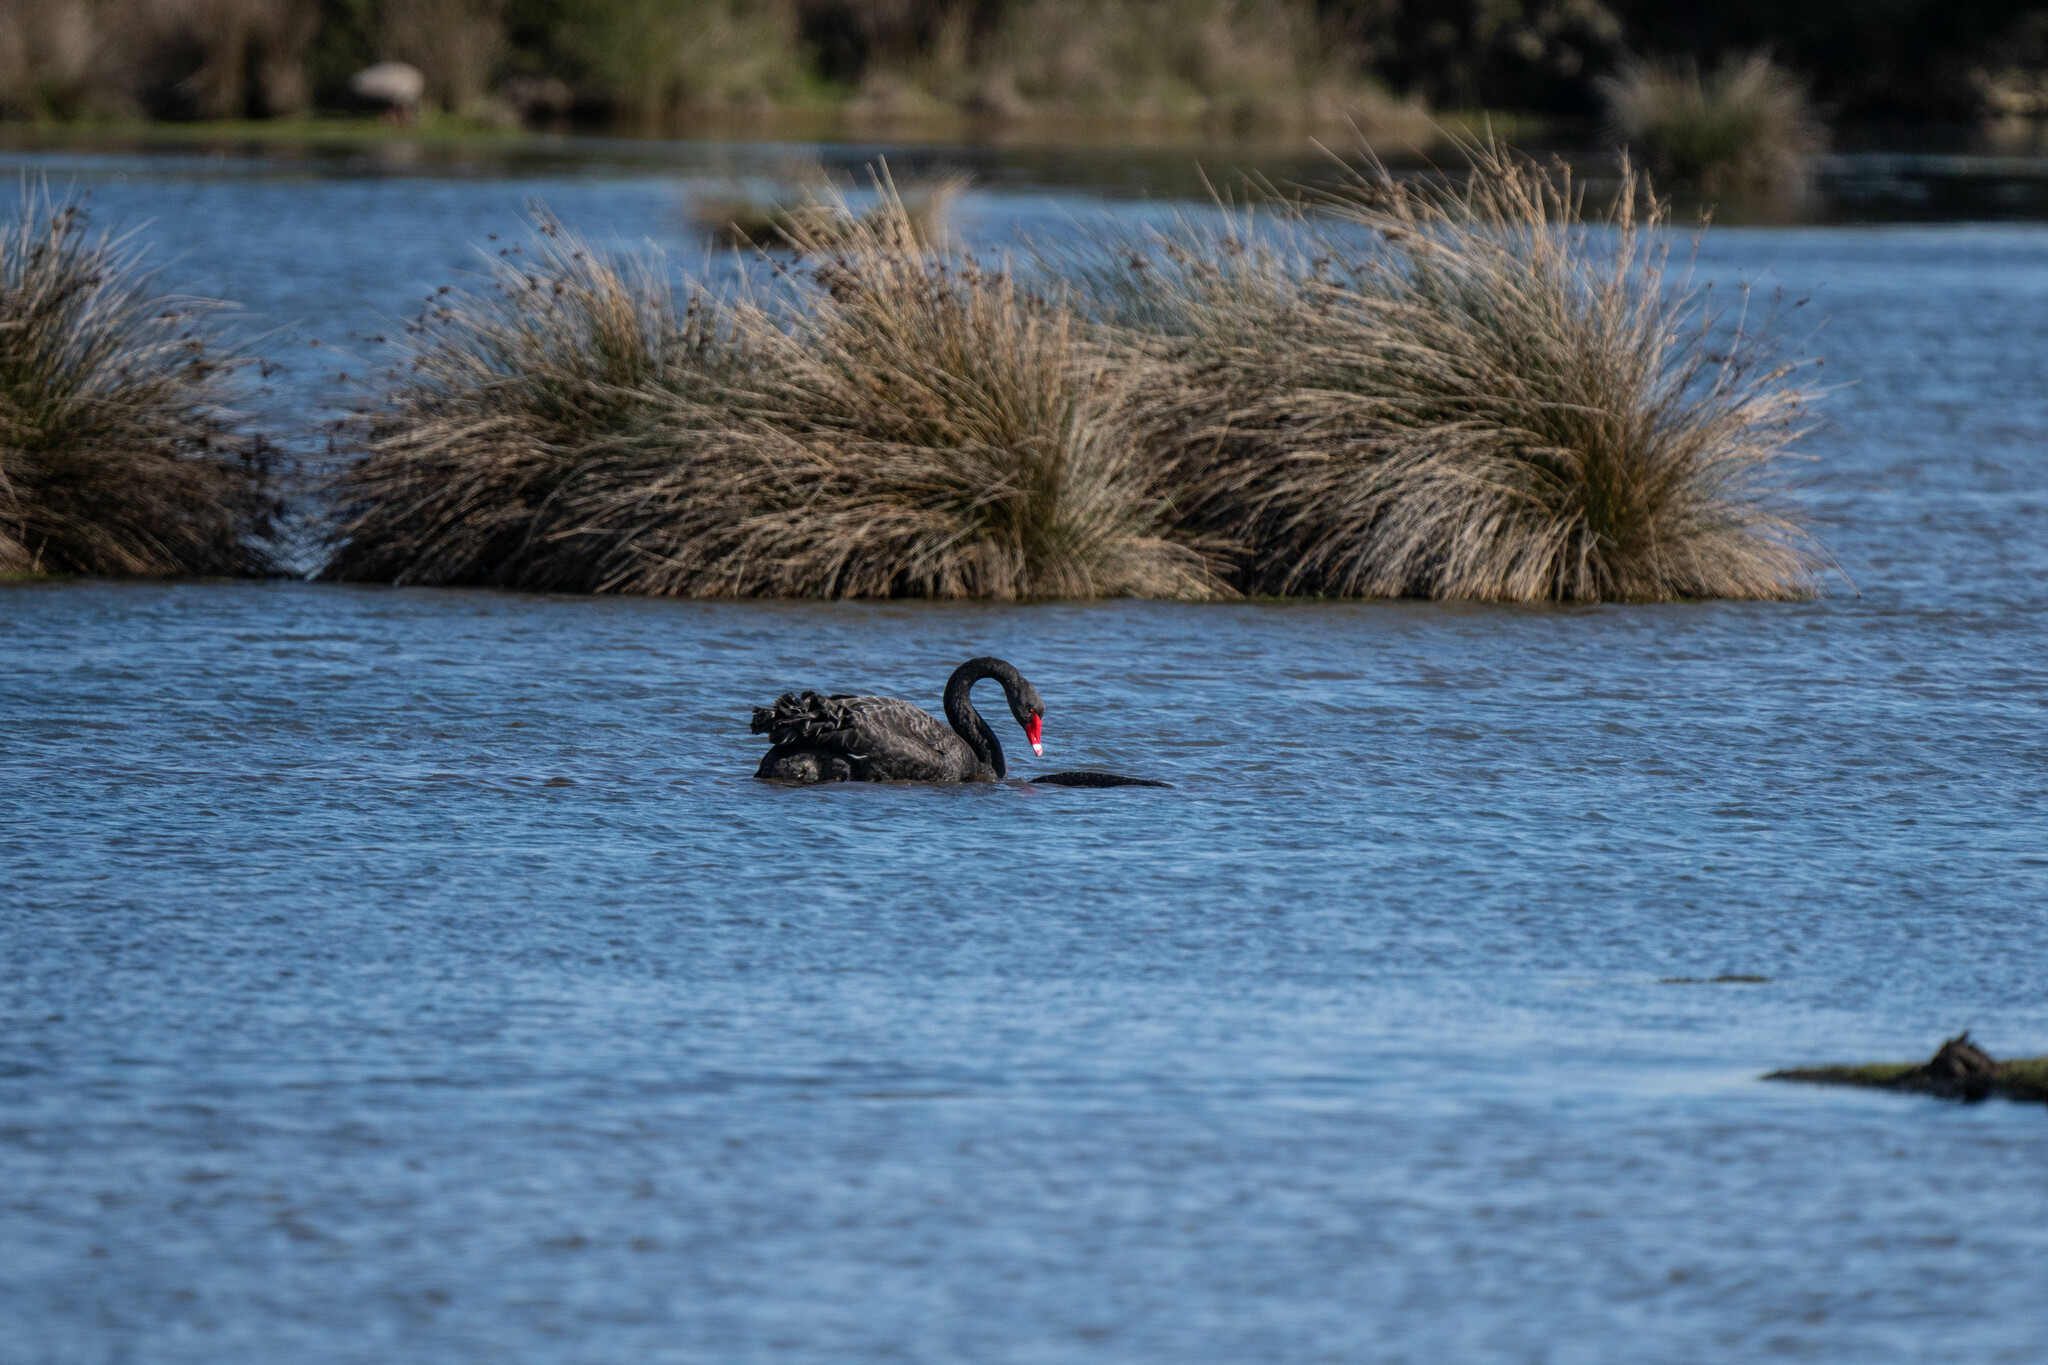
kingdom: Animalia
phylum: Chordata
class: Aves
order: Anseriformes
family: Anatidae
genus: Cygnus
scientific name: Cygnus atratus
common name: Black swan
